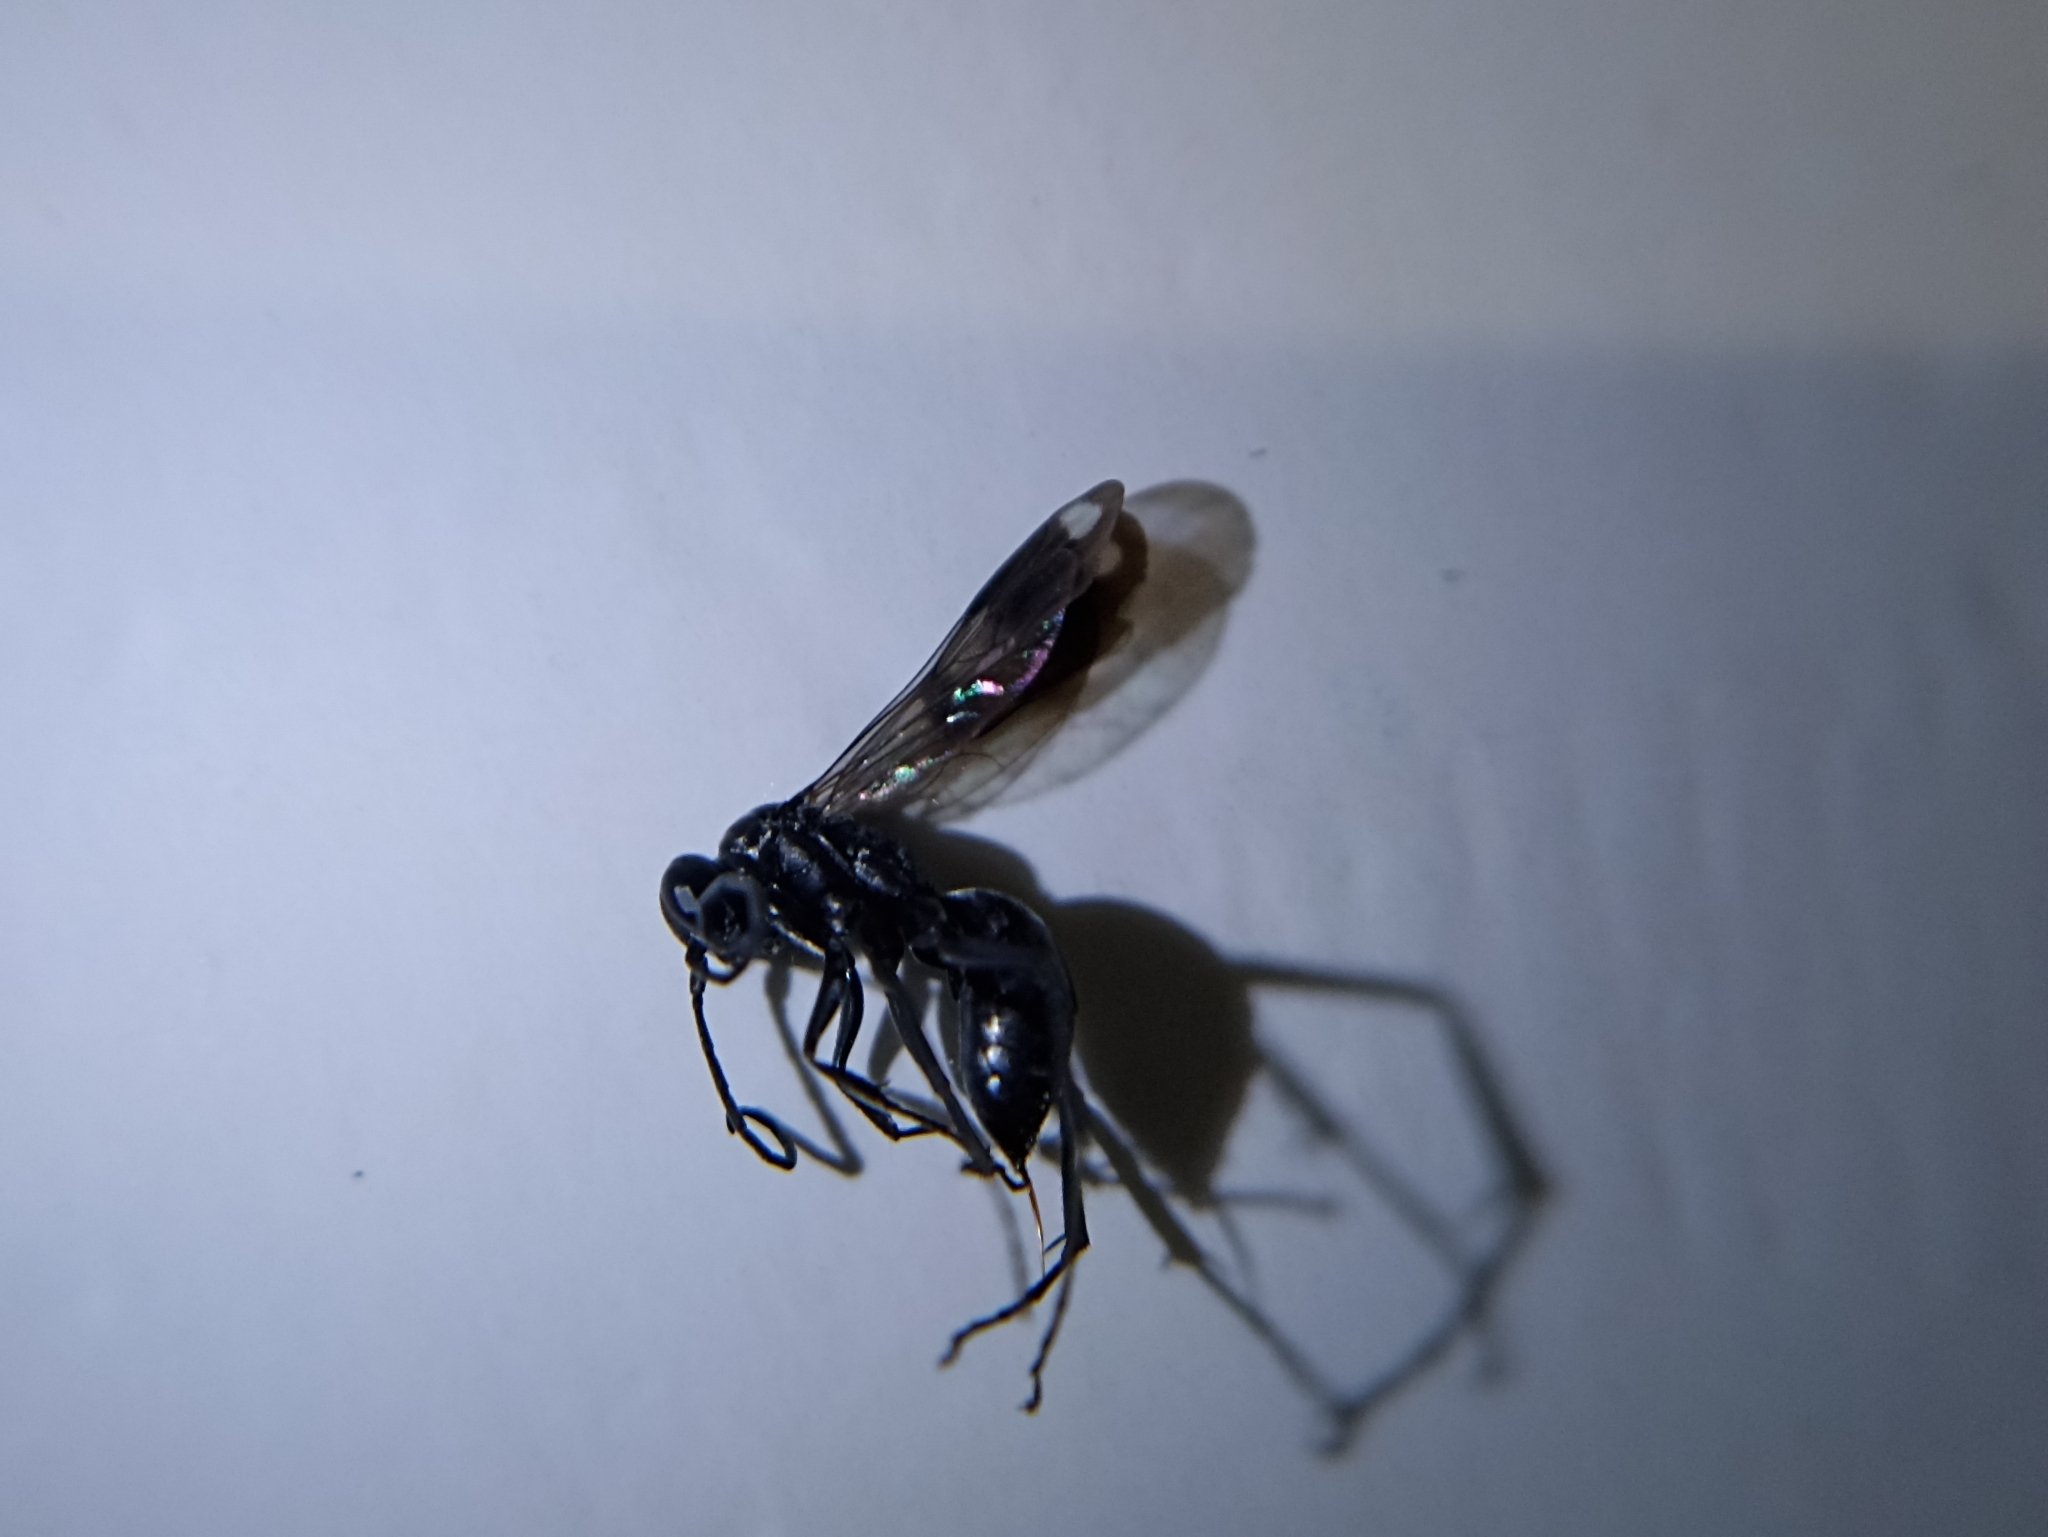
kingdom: Animalia
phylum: Arthropoda
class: Insecta
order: Hymenoptera
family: Pompilidae
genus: Deuteragenia
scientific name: Deuteragenia variegata
